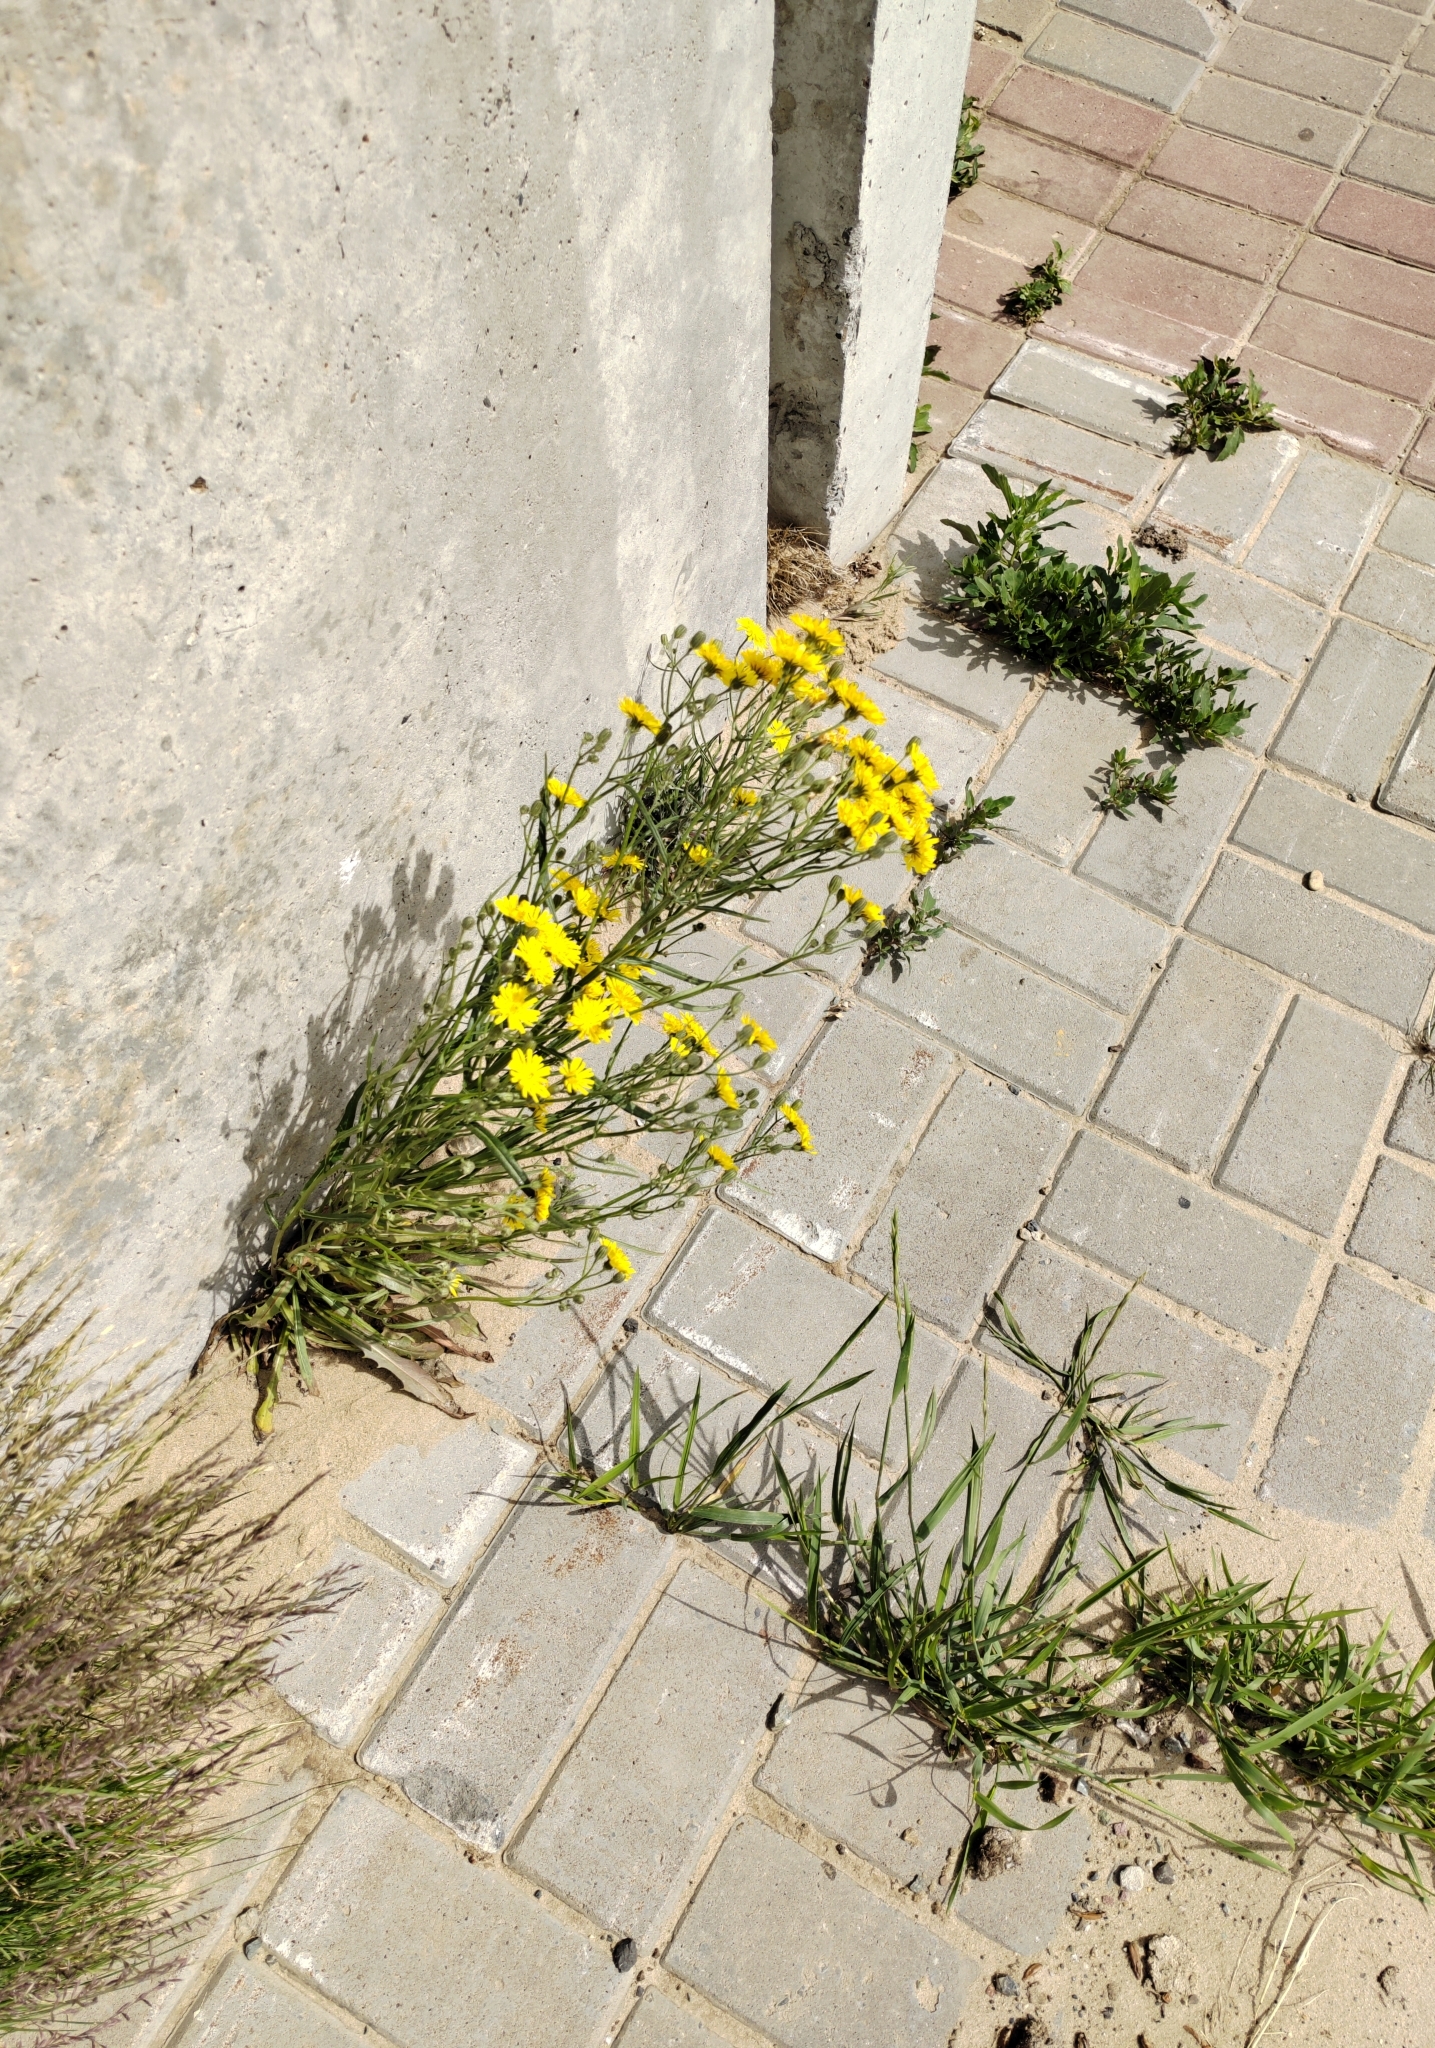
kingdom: Plantae
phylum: Tracheophyta
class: Magnoliopsida
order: Asterales
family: Asteraceae
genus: Crepis
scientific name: Crepis tectorum
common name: Narrow-leaved hawk's-beard
